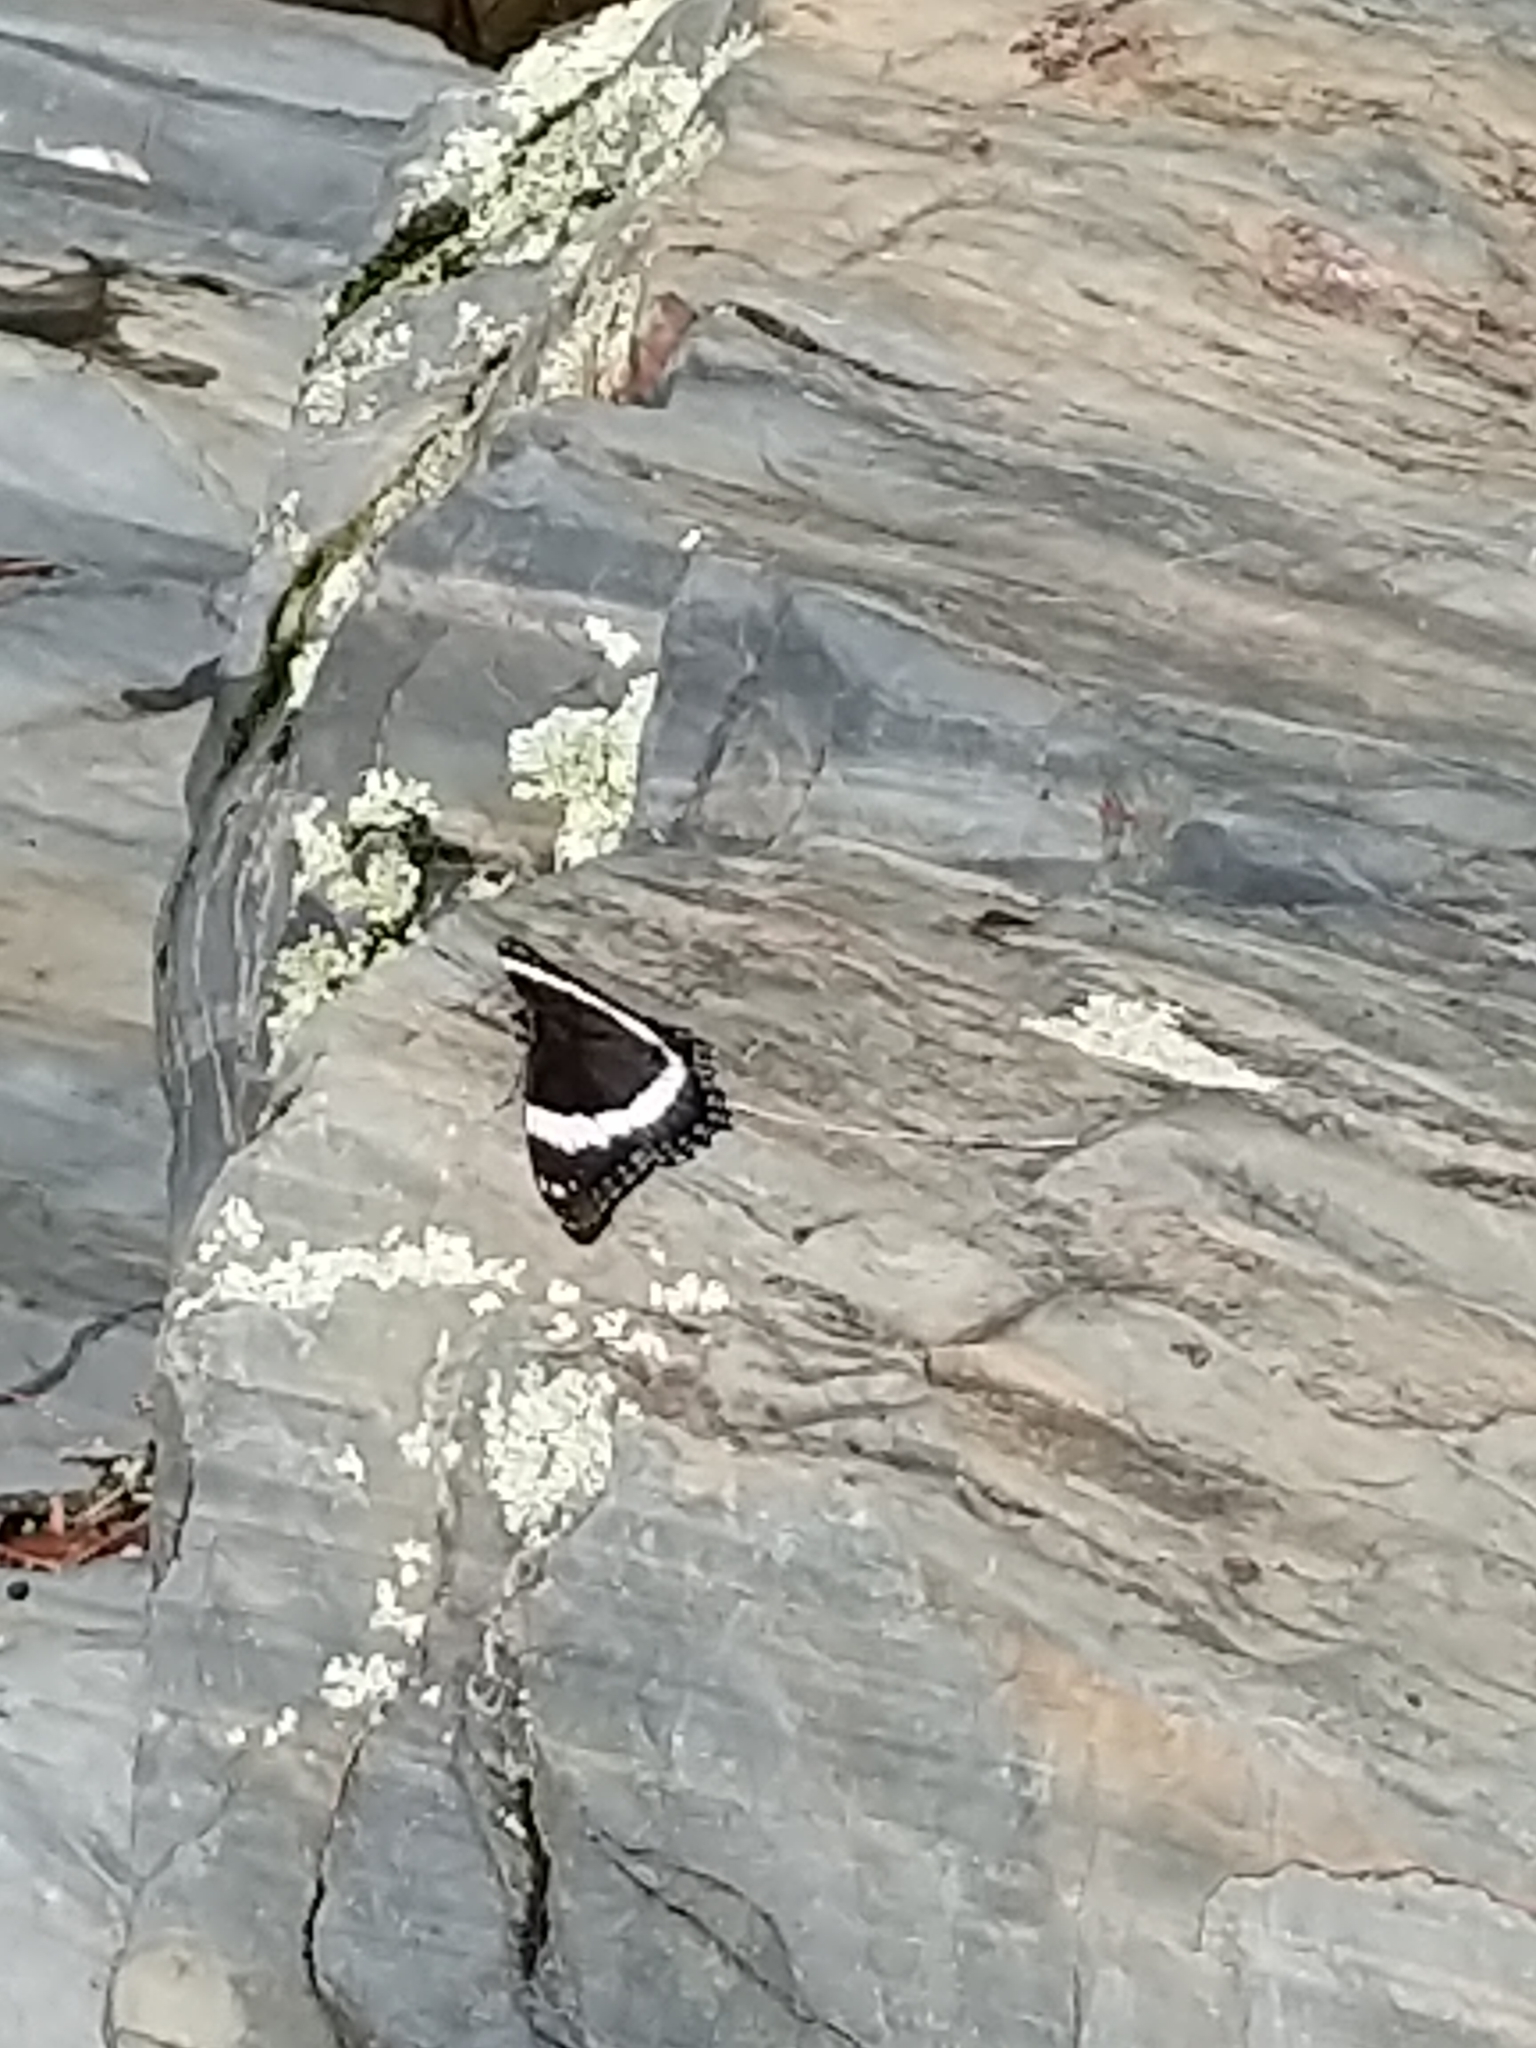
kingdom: Animalia
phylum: Arthropoda
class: Insecta
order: Lepidoptera
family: Nymphalidae
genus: Limenitis
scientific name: Limenitis arthemis
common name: Red-spotted admiral
